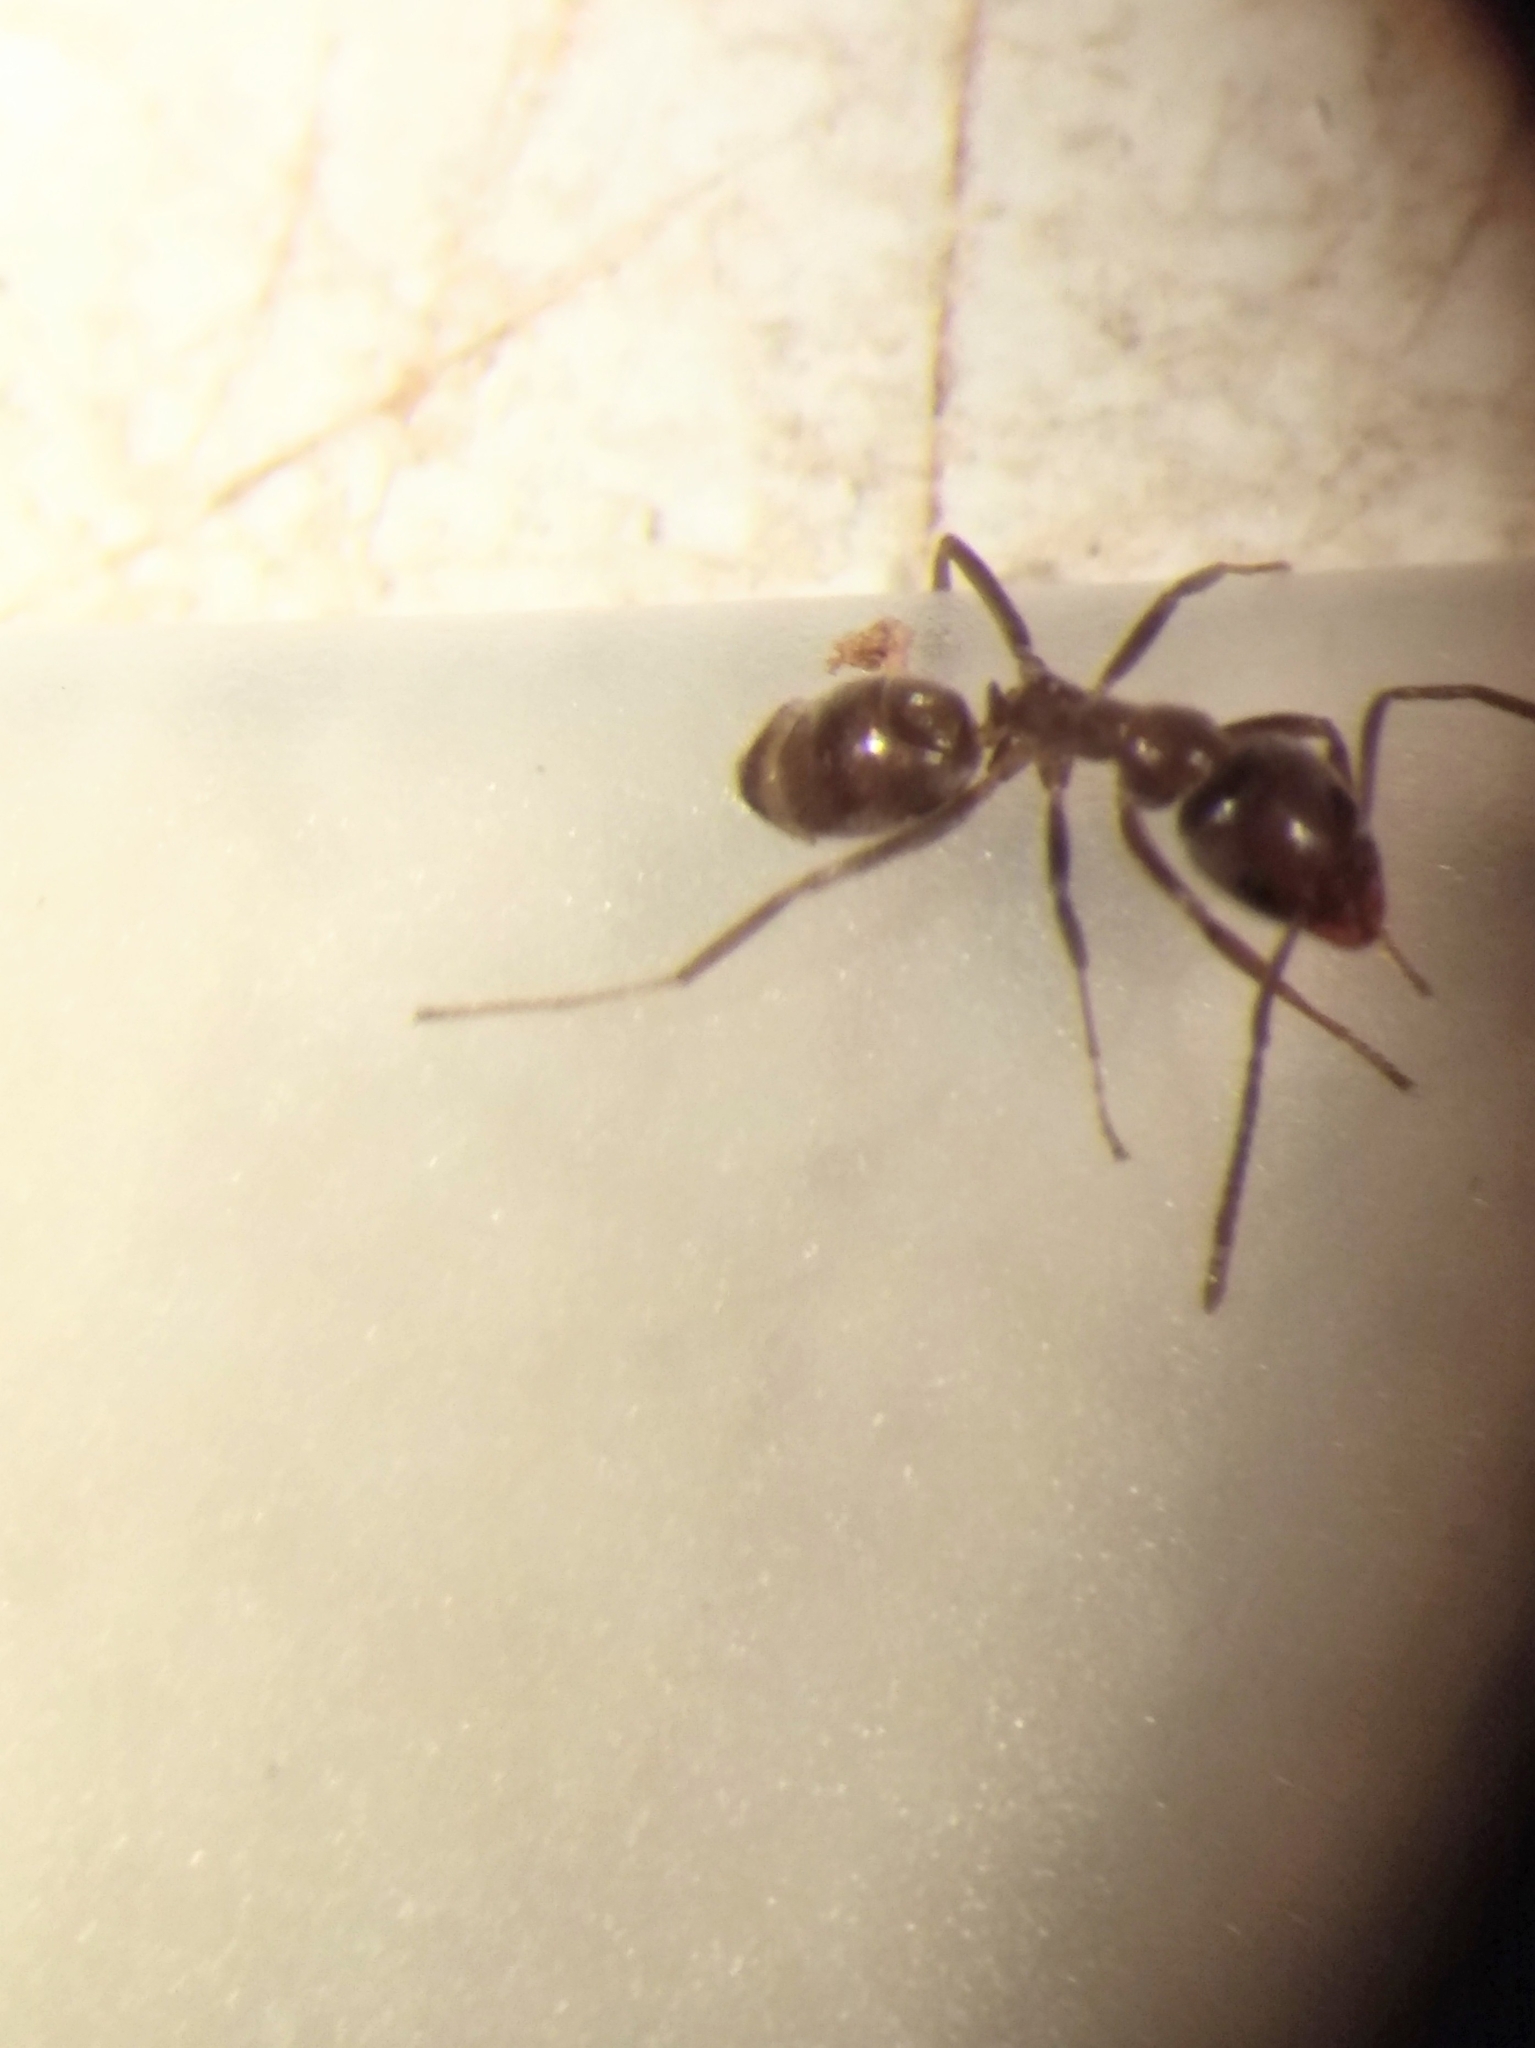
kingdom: Animalia
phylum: Arthropoda
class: Insecta
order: Hymenoptera
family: Formicidae
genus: Linepithema
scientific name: Linepithema humile
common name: Argentine ant
